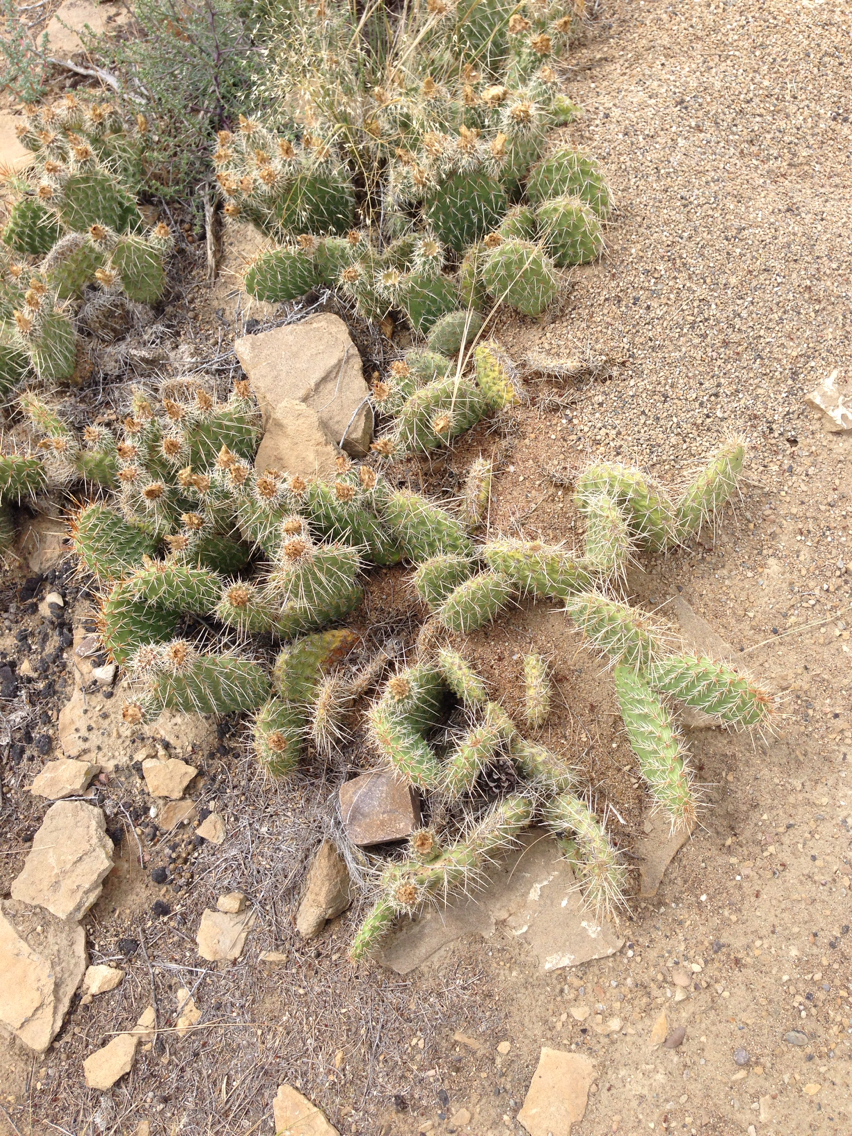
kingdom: Plantae
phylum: Tracheophyta
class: Magnoliopsida
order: Caryophyllales
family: Cactaceae
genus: Opuntia
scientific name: Opuntia polyacantha
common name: Plains prickly-pear
